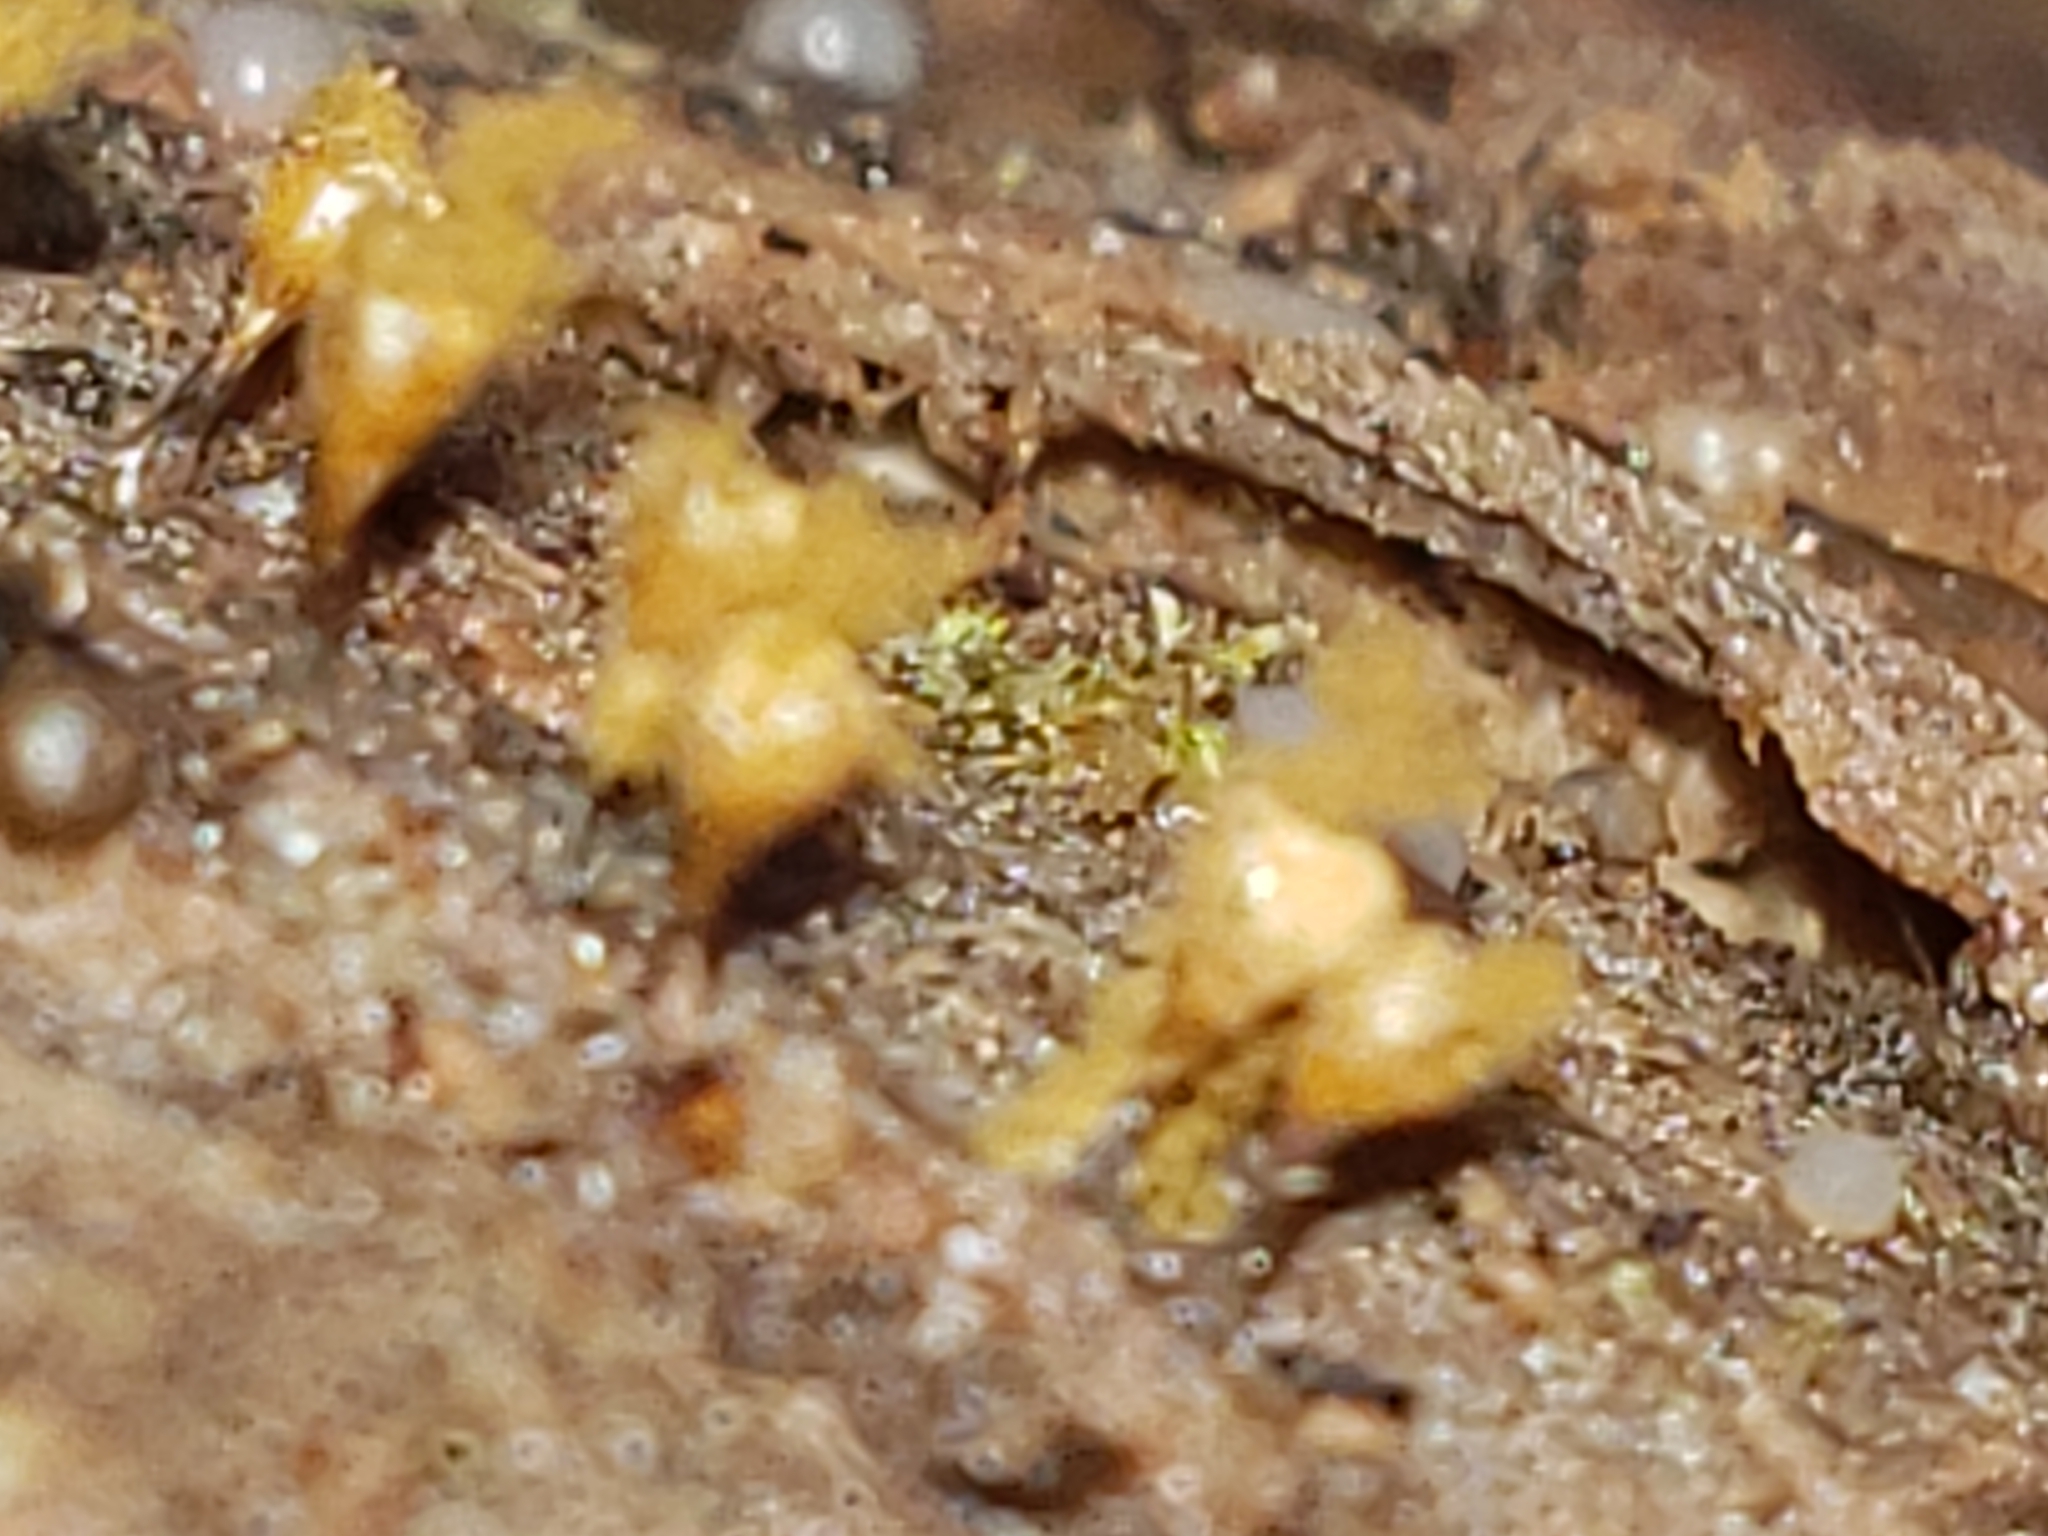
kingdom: Protozoa
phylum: Mycetozoa
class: Myxomycetes
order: Trichiales
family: Arcyriaceae
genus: Hemitrichia
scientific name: Hemitrichia calyculata
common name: Push pin slime mold
